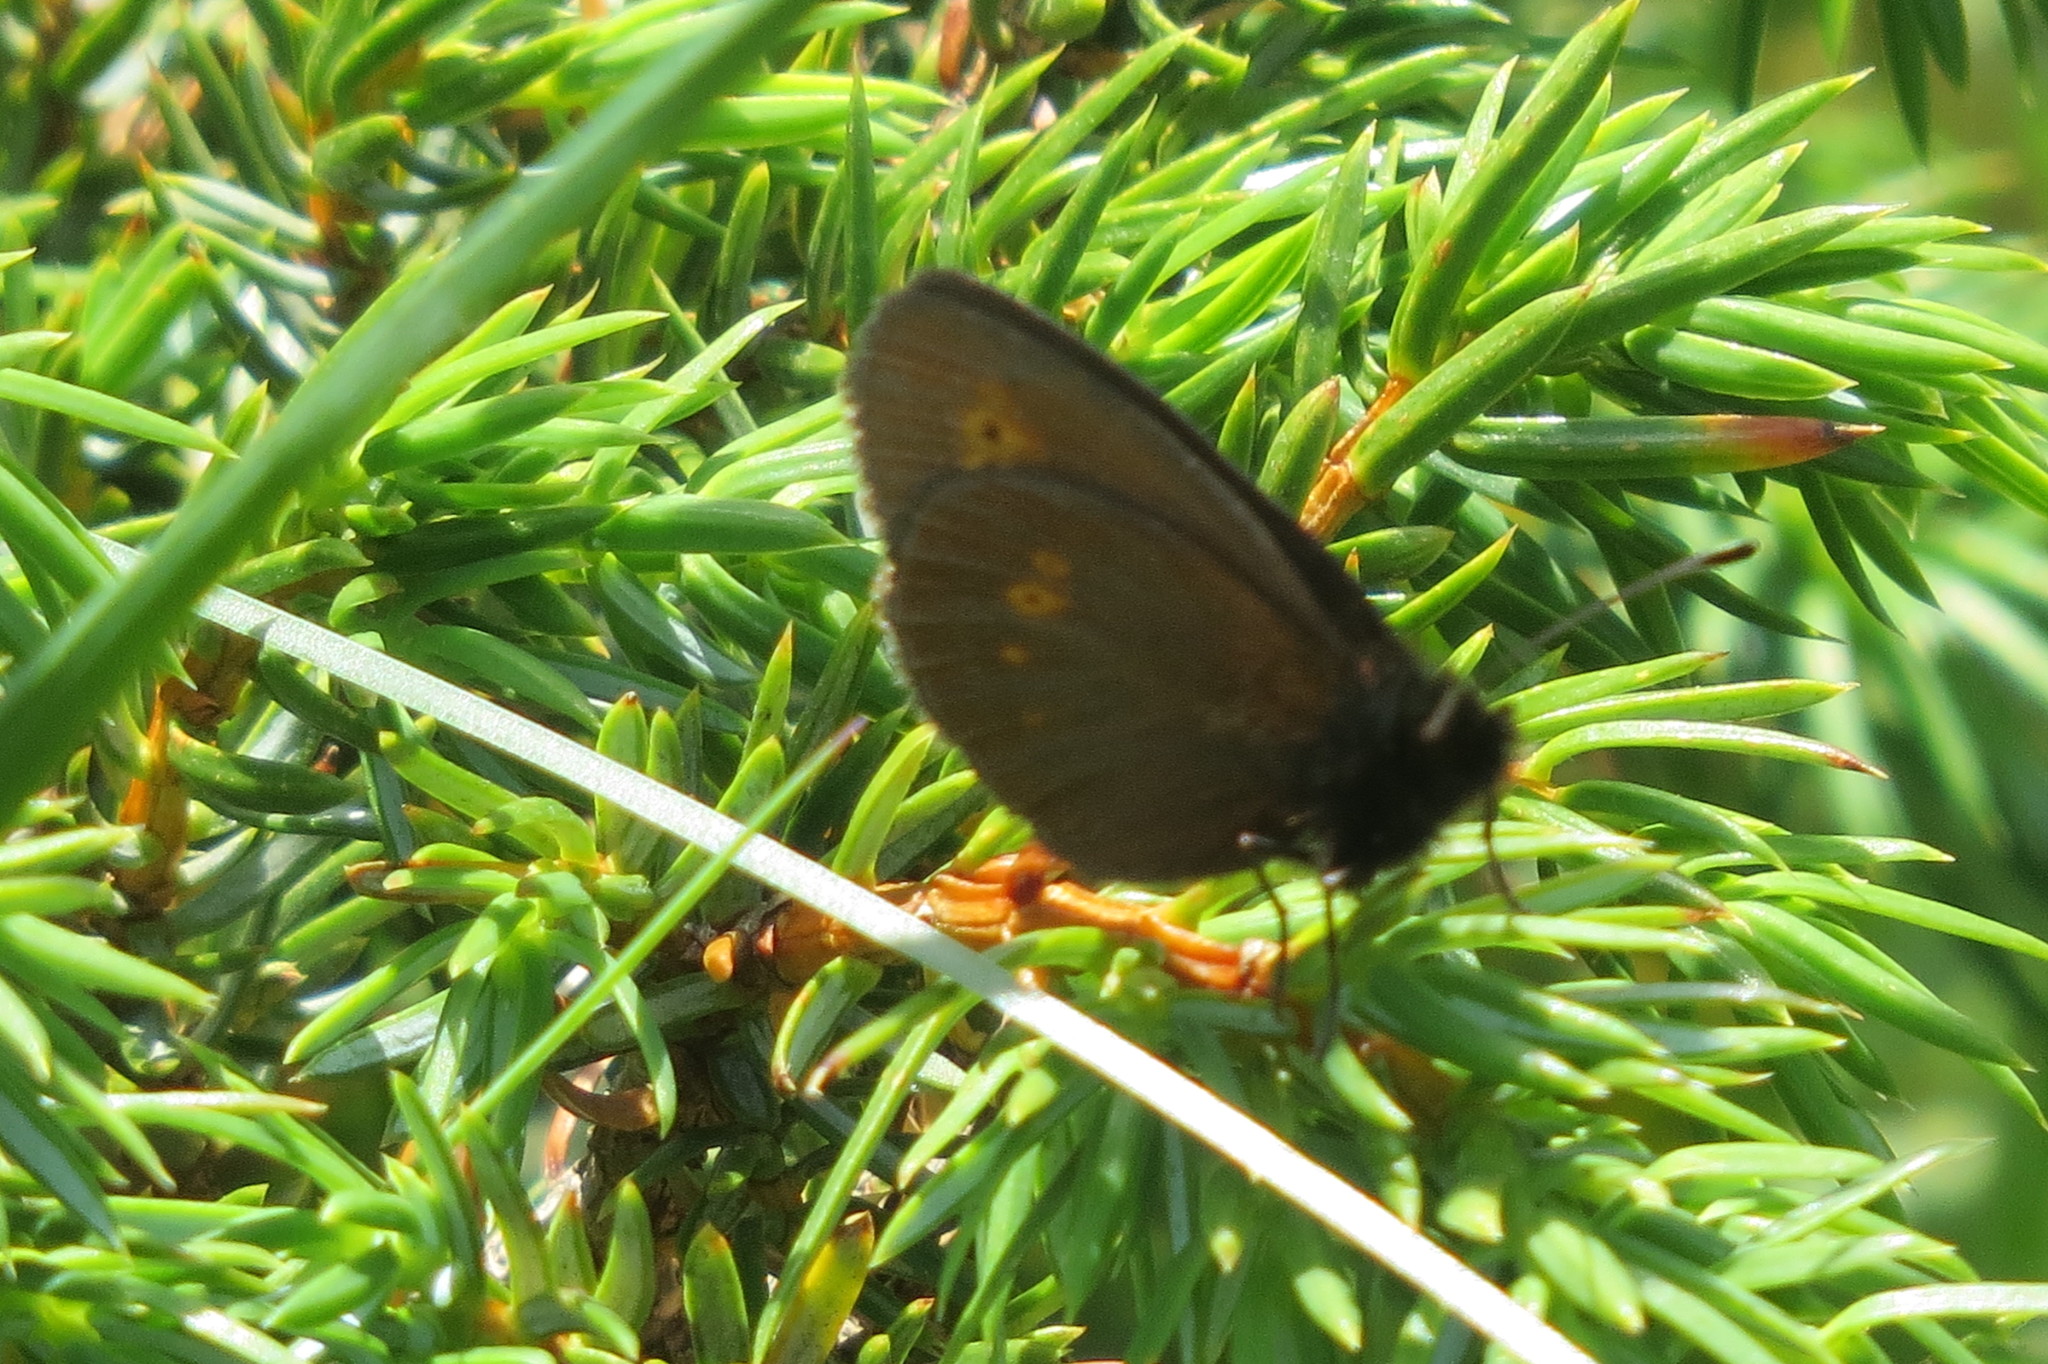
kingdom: Animalia
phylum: Arthropoda
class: Insecta
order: Lepidoptera
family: Nymphalidae
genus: Erebia
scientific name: Erebia melampus
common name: Lesser mountain ringlet
